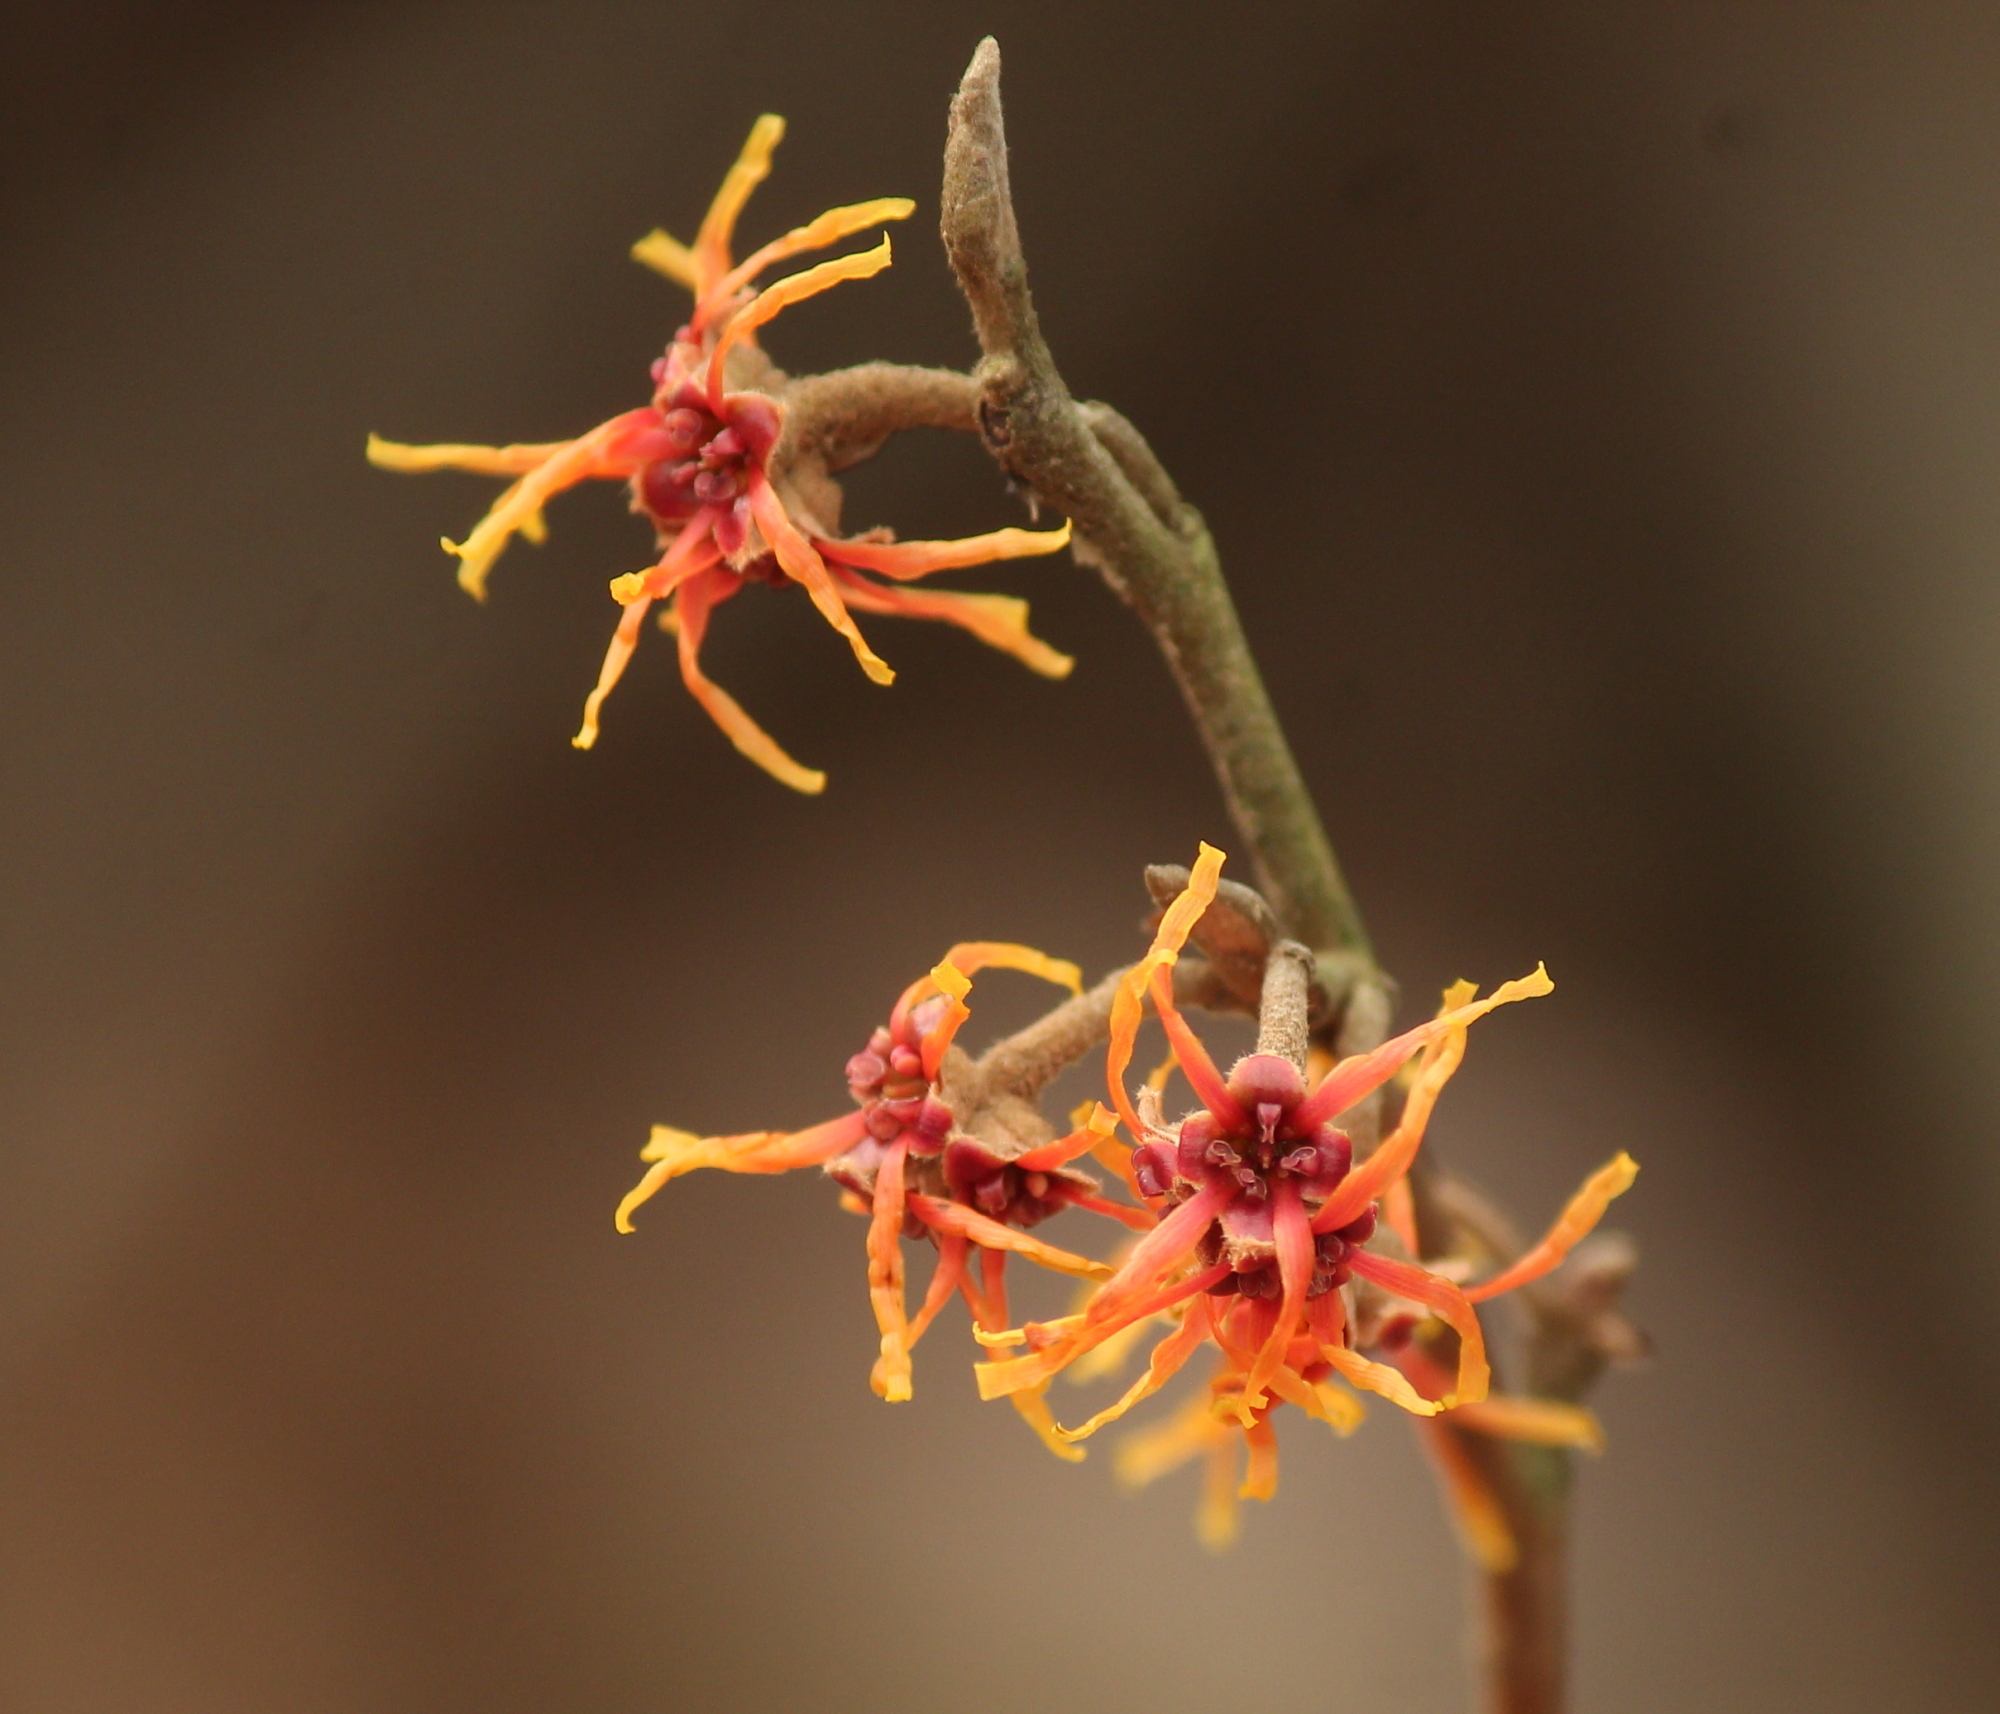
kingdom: Plantae
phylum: Tracheophyta
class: Magnoliopsida
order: Saxifragales
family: Hamamelidaceae
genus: Hamamelis
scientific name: Hamamelis vernalis
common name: Ozark witch-hazel
